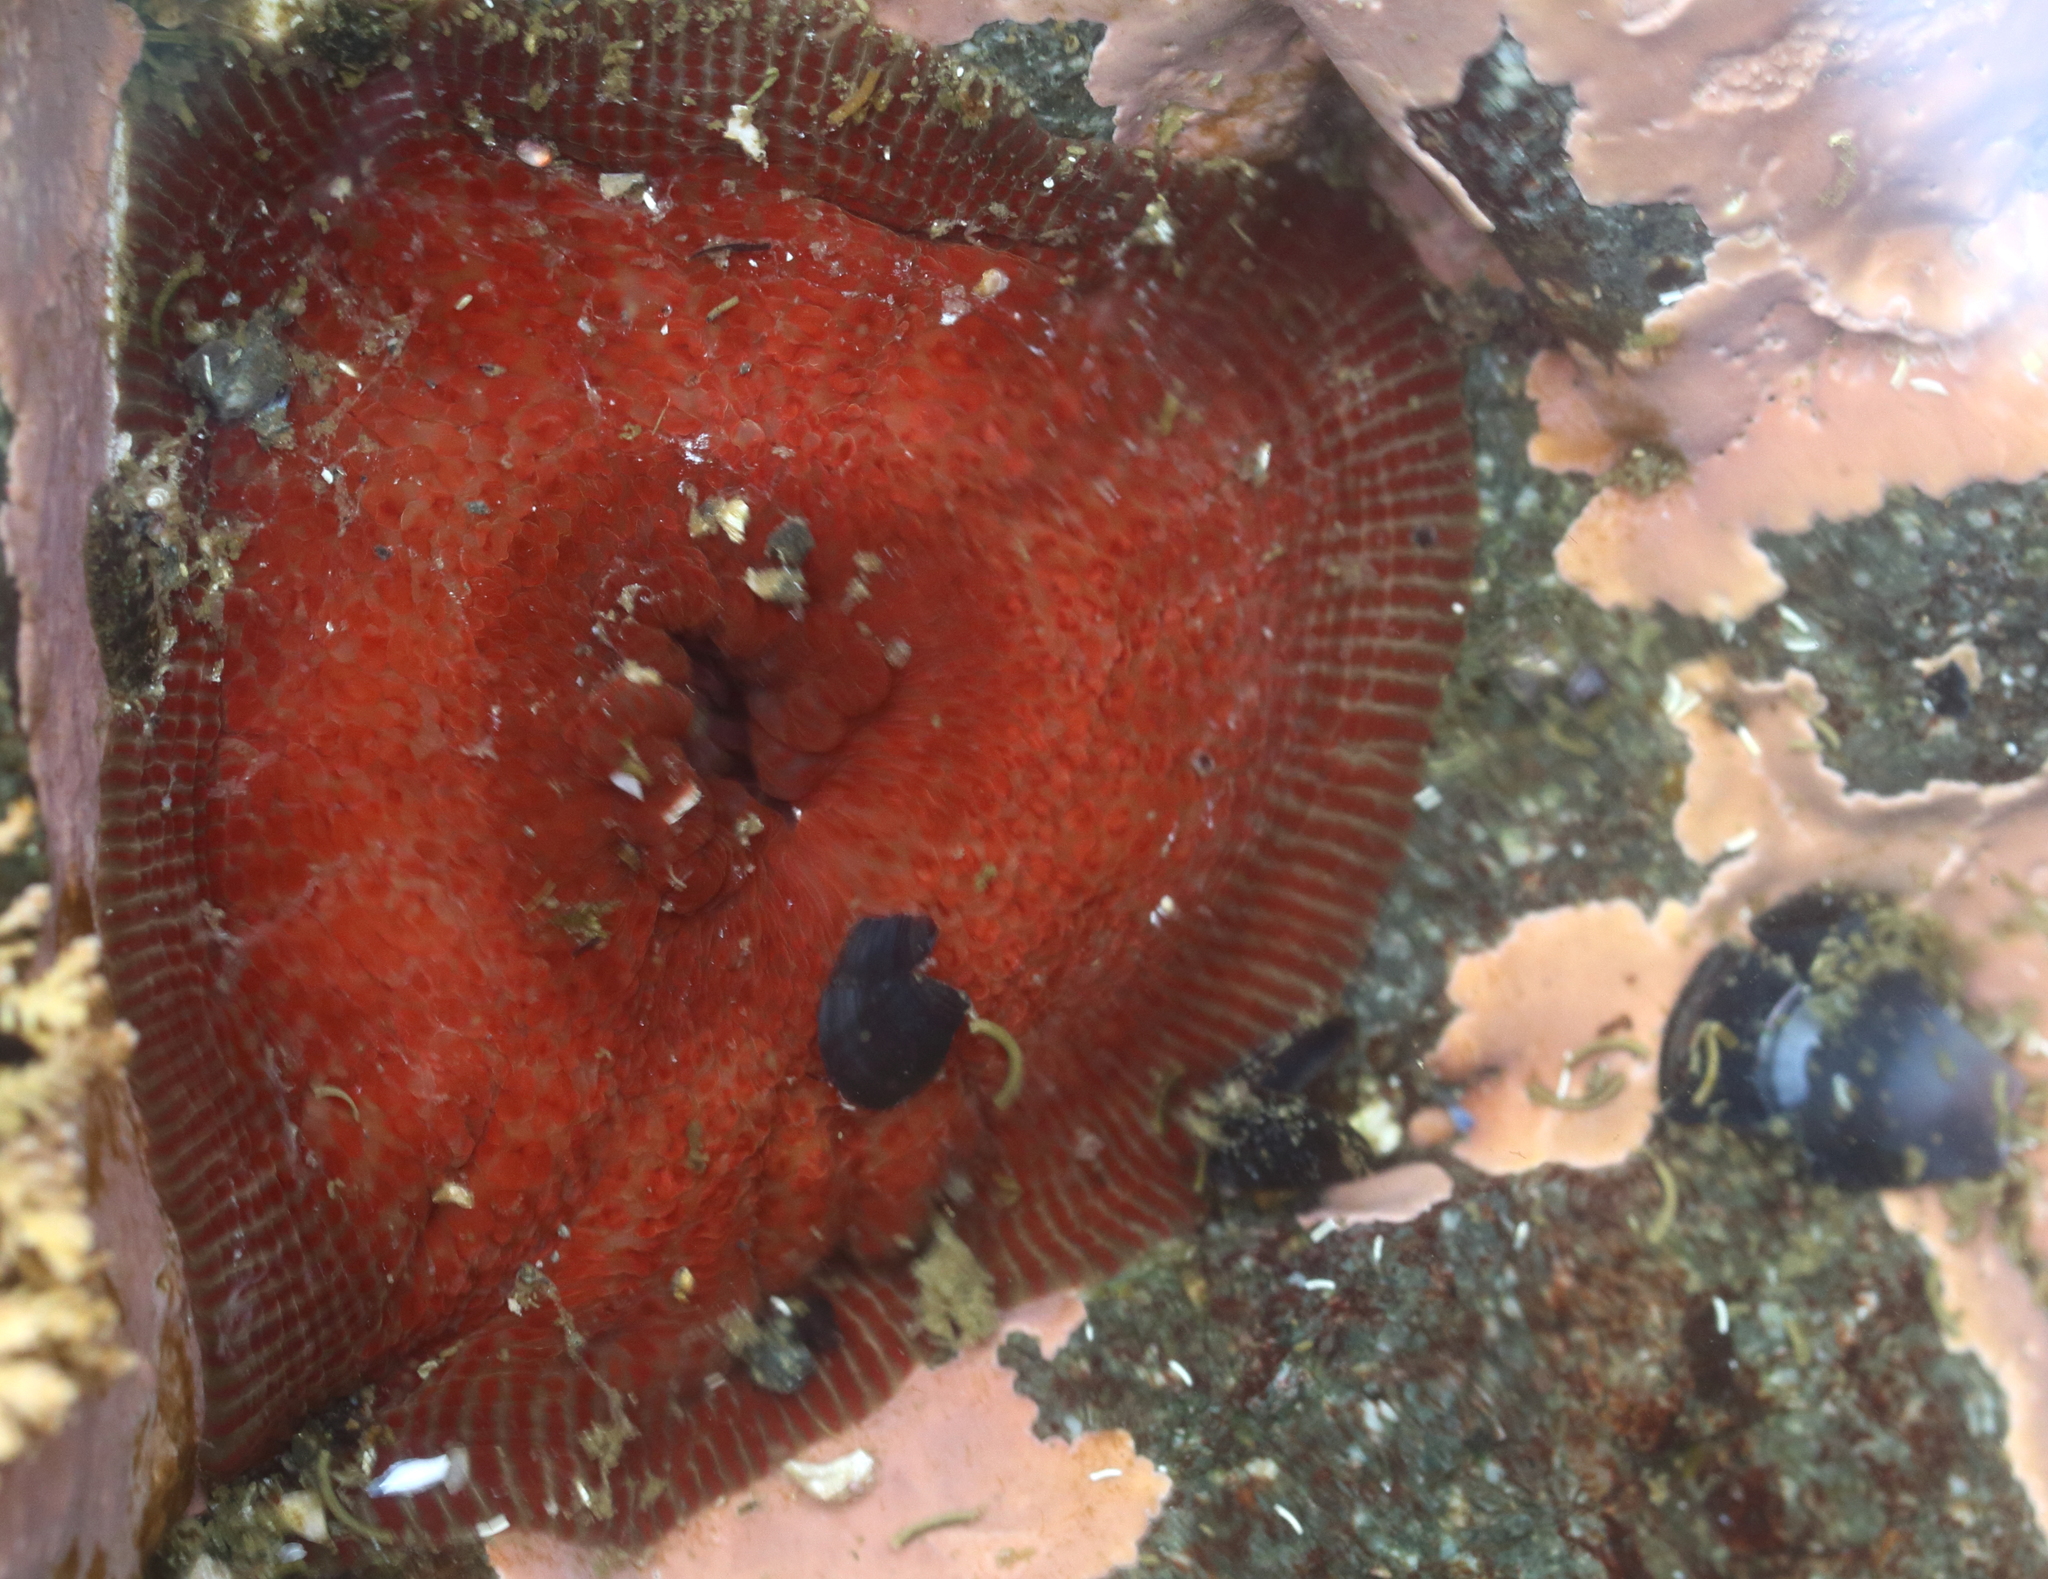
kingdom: Animalia
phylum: Cnidaria
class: Anthozoa
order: Actiniaria
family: Actiniidae
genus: Epiactis
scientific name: Epiactis lisbethae
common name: Giant brooding anemone
